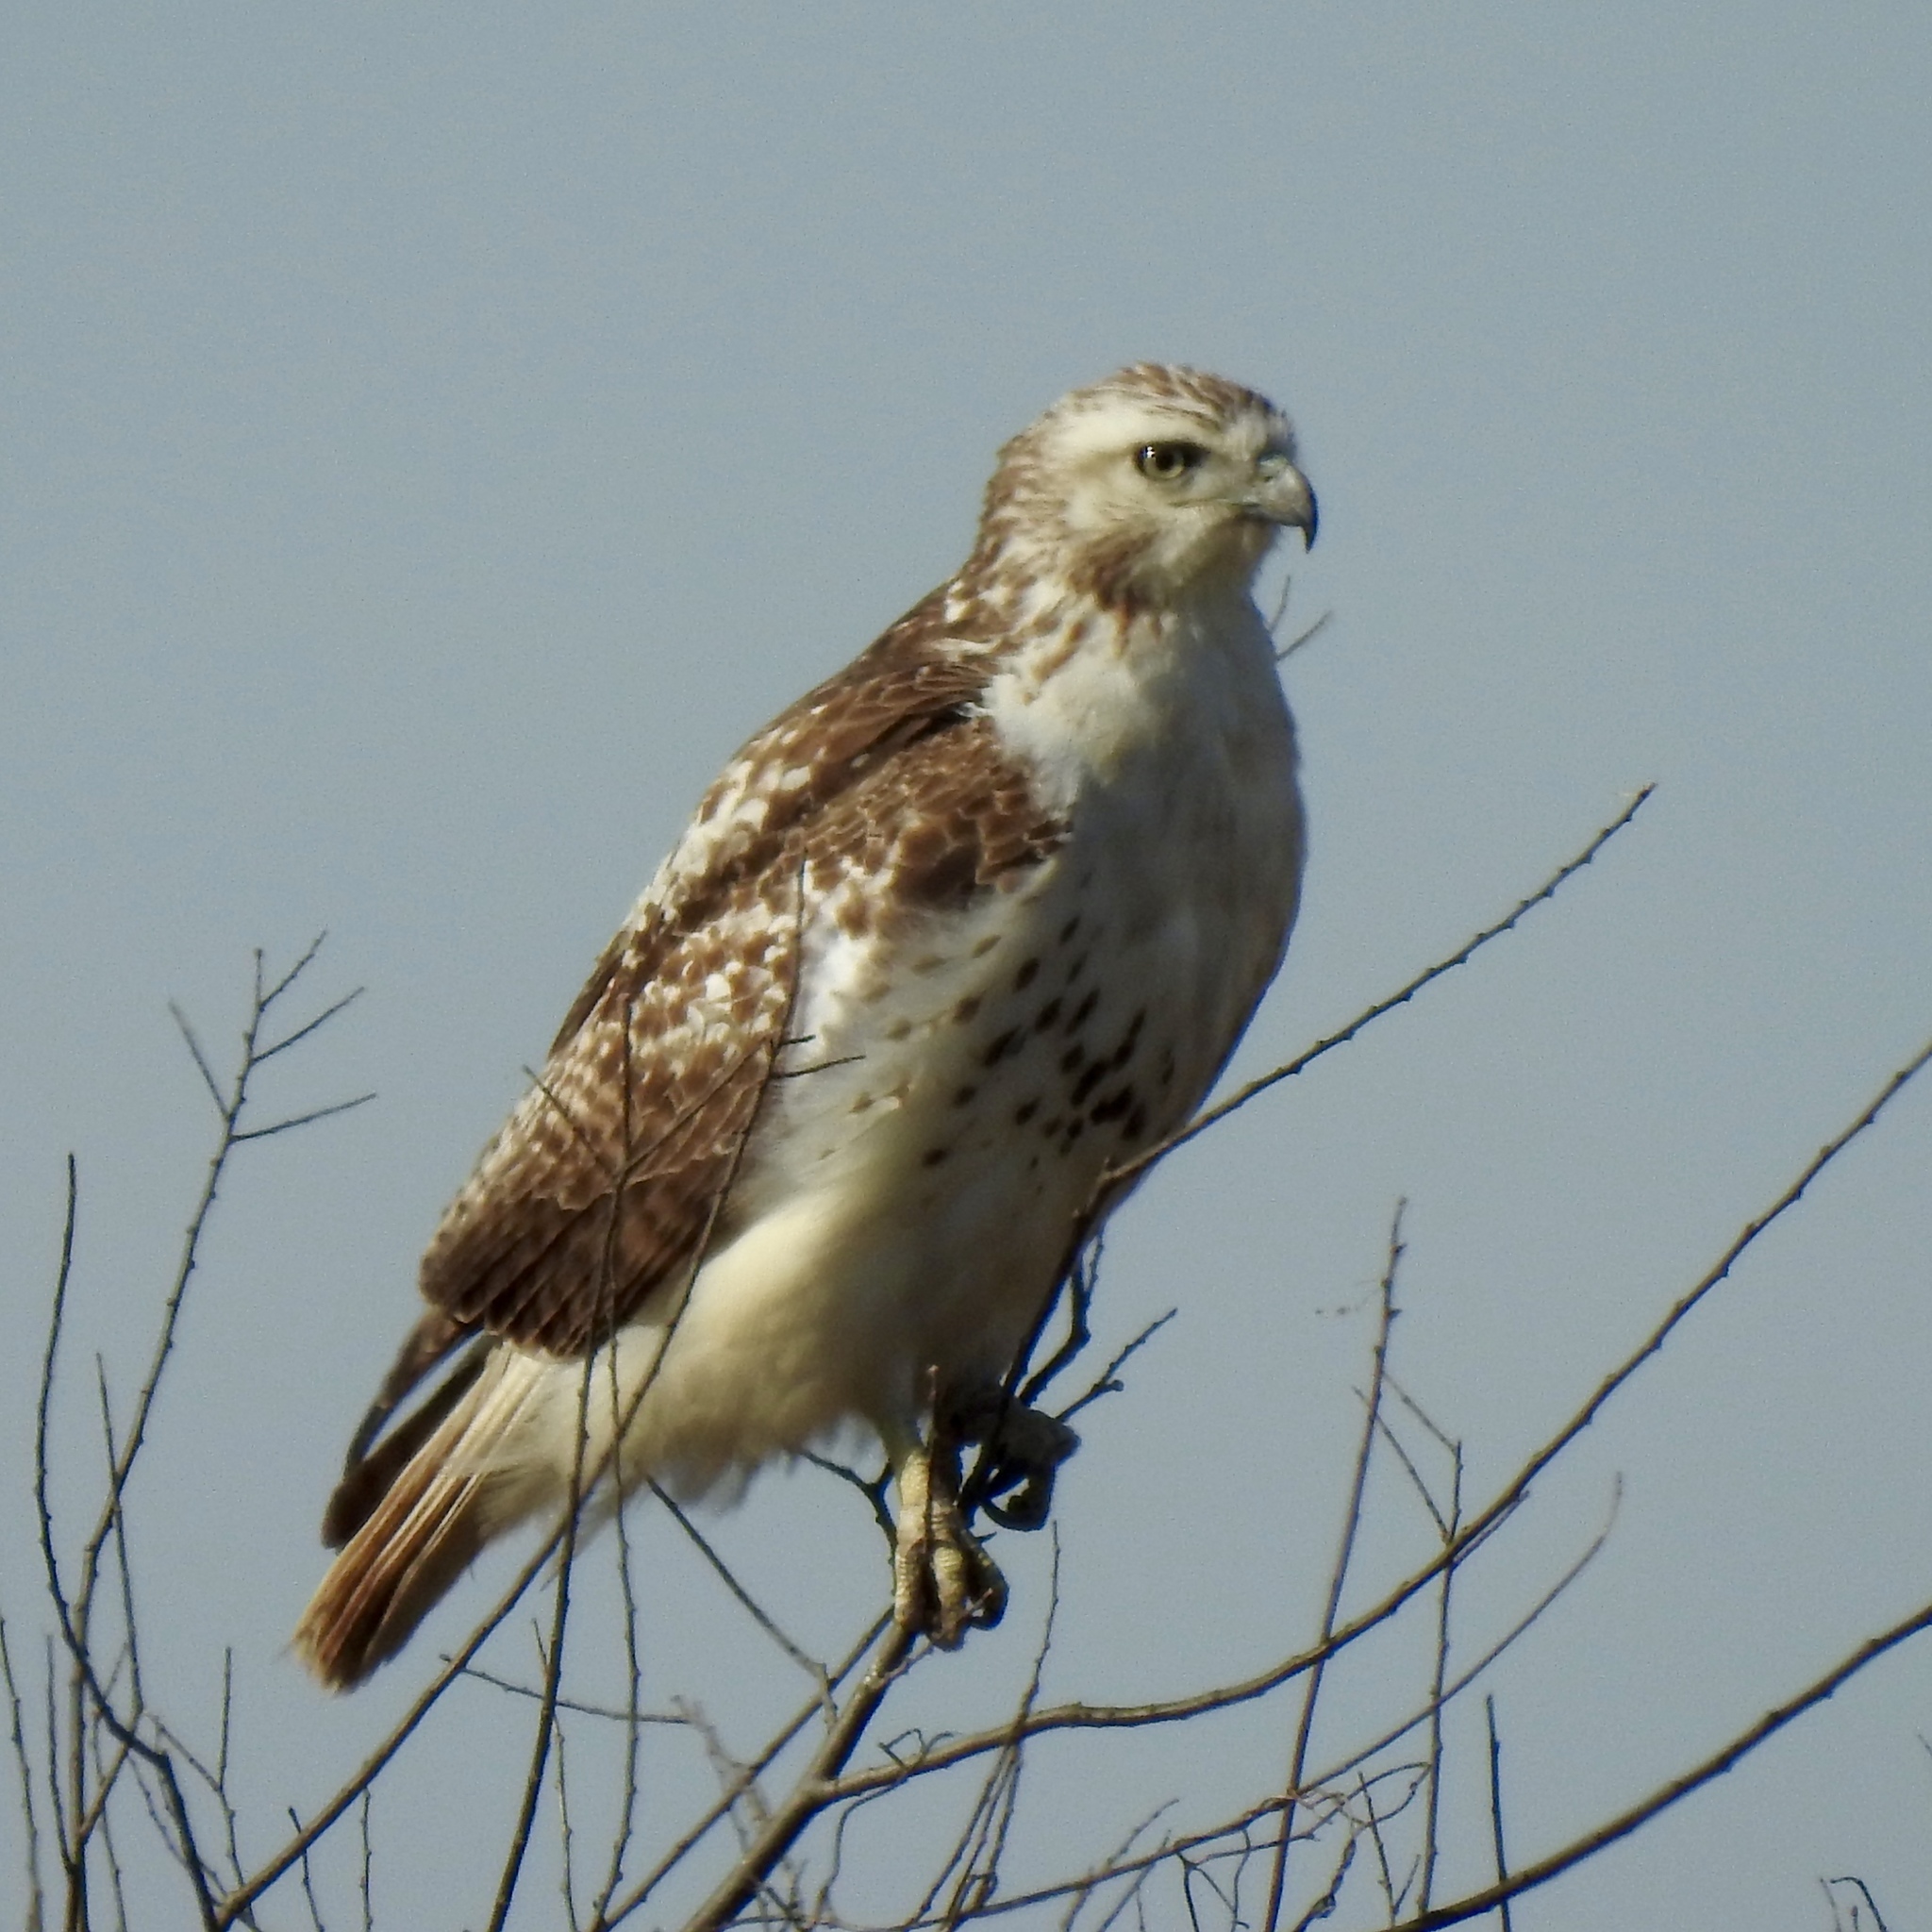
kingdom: Animalia
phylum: Chordata
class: Aves
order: Accipitriformes
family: Accipitridae
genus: Buteo
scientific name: Buteo jamaicensis
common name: Red-tailed hawk
